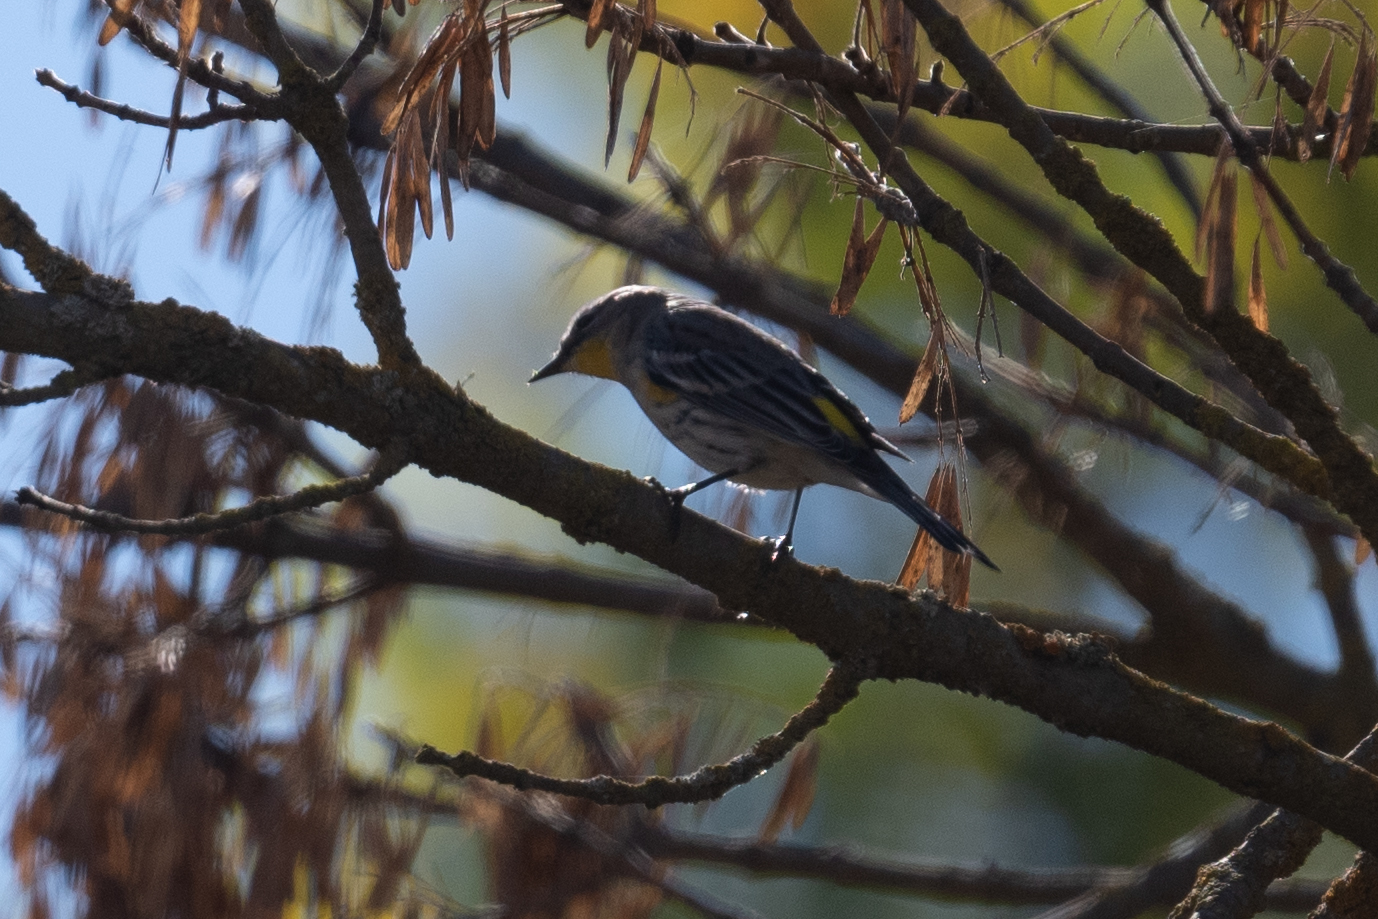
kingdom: Animalia
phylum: Chordata
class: Aves
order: Passeriformes
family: Parulidae
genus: Setophaga
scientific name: Setophaga coronata
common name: Myrtle warbler
